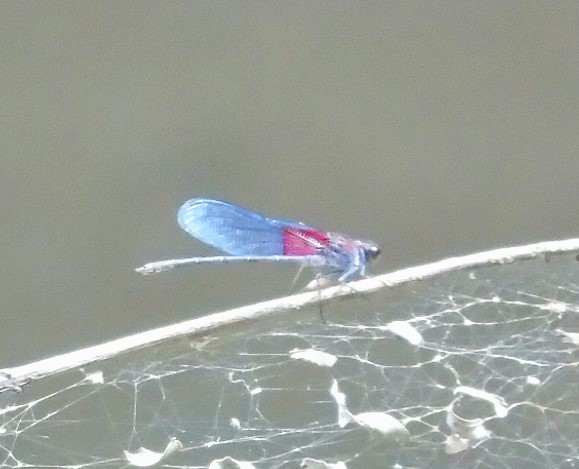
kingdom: Animalia
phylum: Arthropoda
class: Insecta
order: Odonata
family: Calopterygidae
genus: Hetaerina
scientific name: Hetaerina americana
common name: American rubyspot
